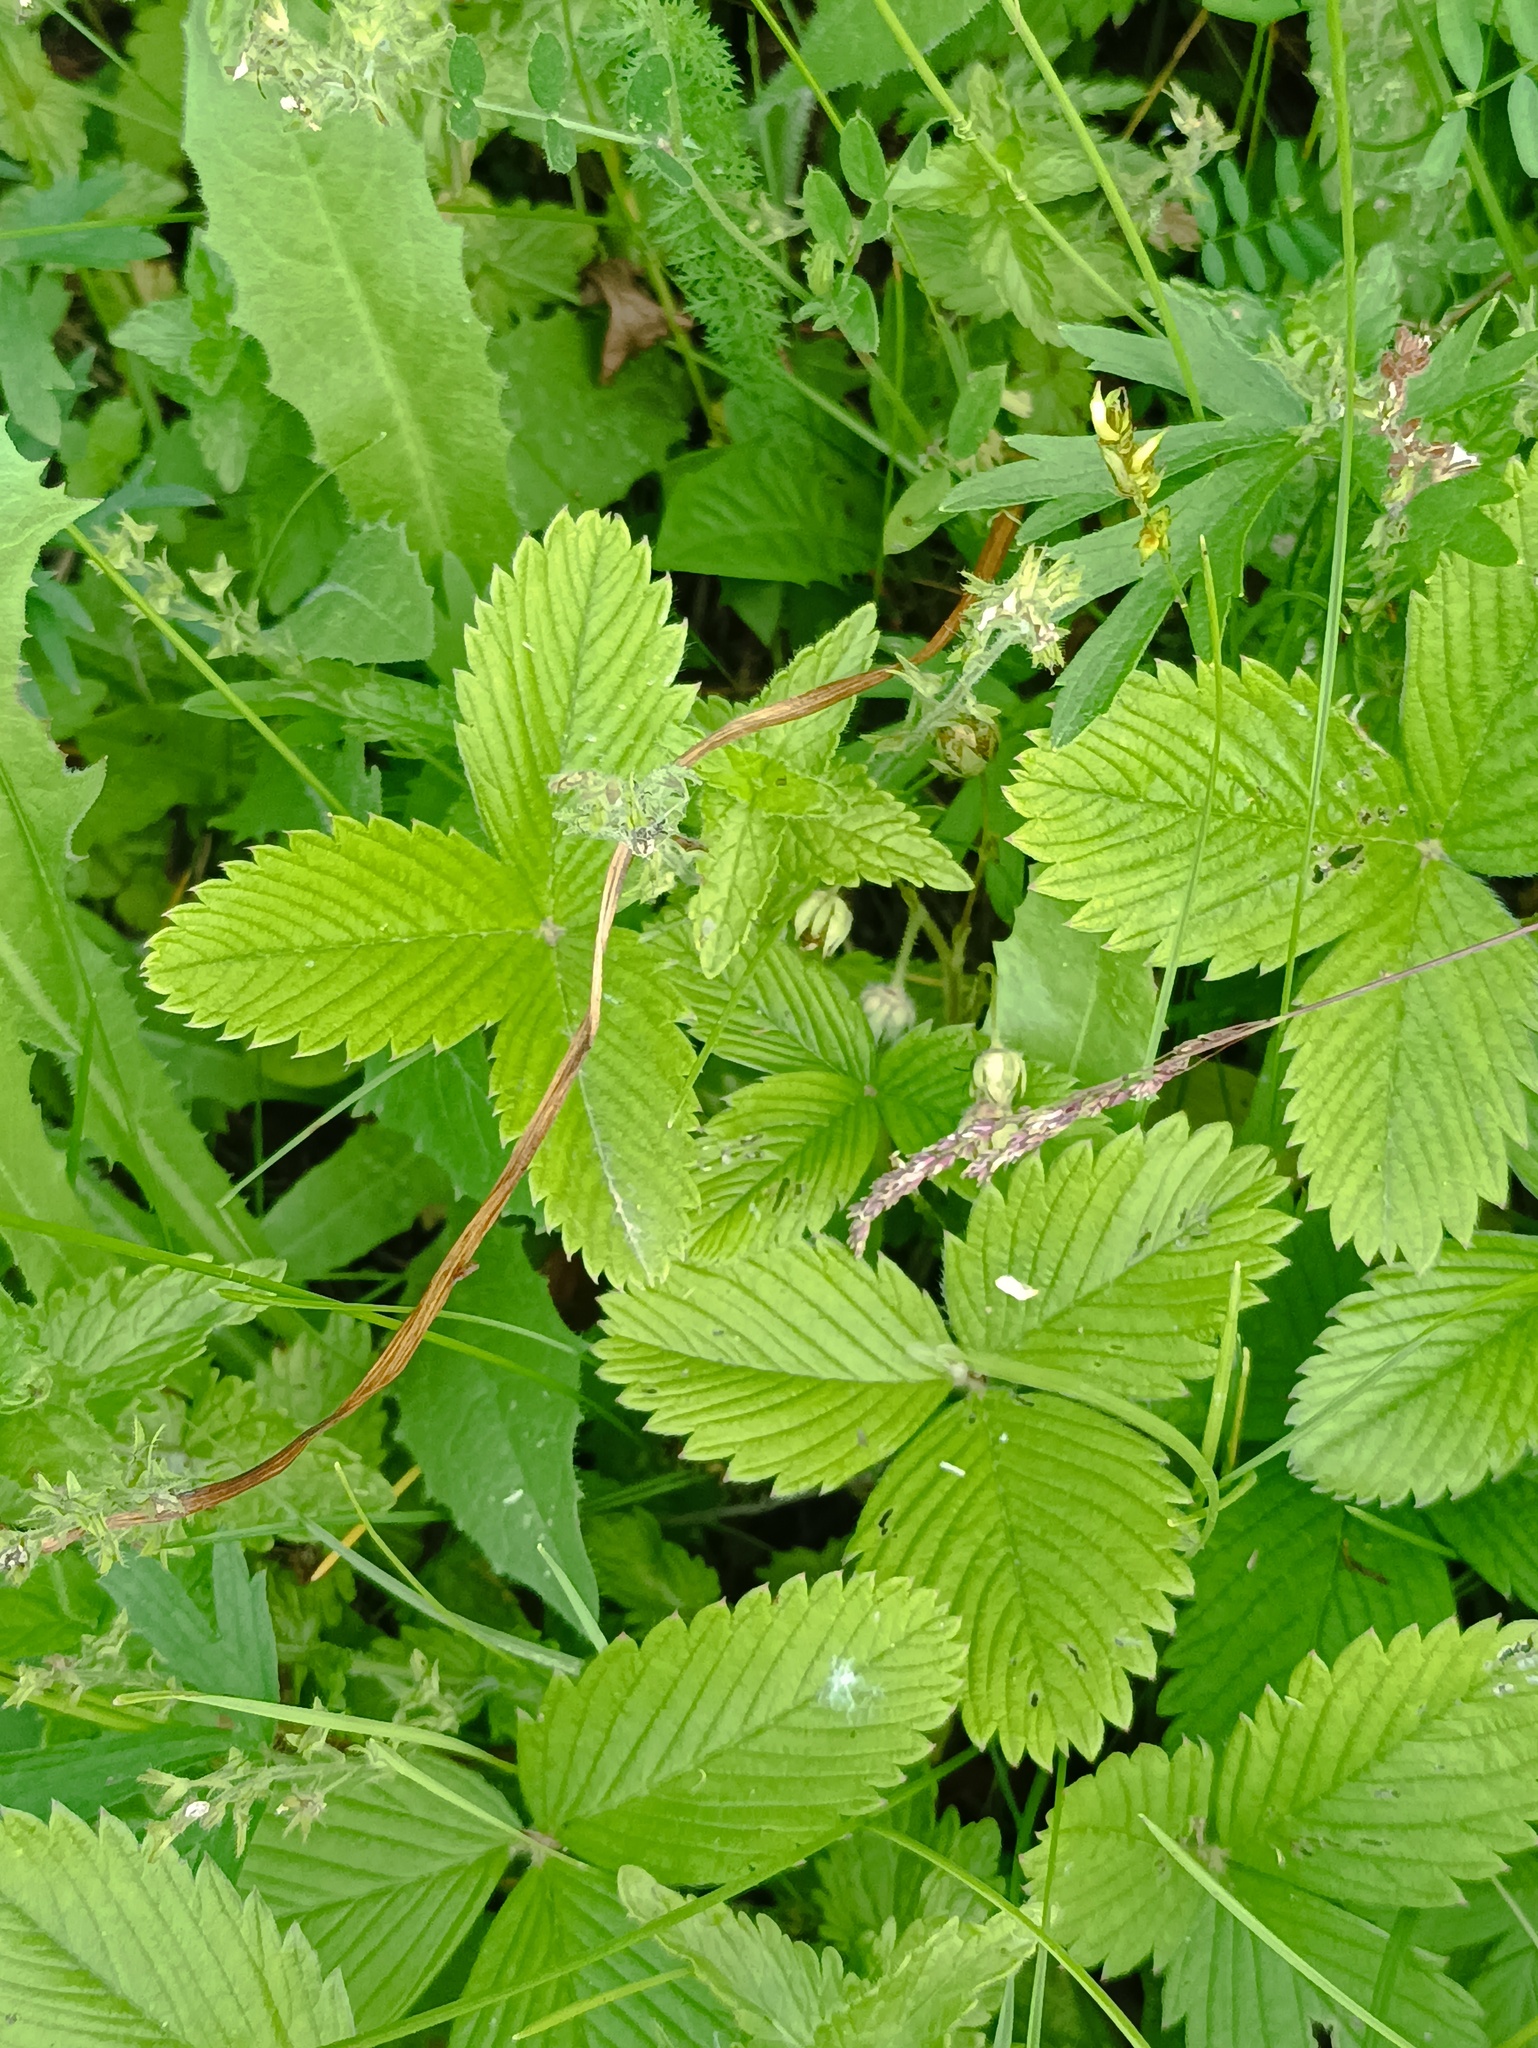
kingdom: Plantae
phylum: Tracheophyta
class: Magnoliopsida
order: Rosales
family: Rosaceae
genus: Fragaria
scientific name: Fragaria viridis
